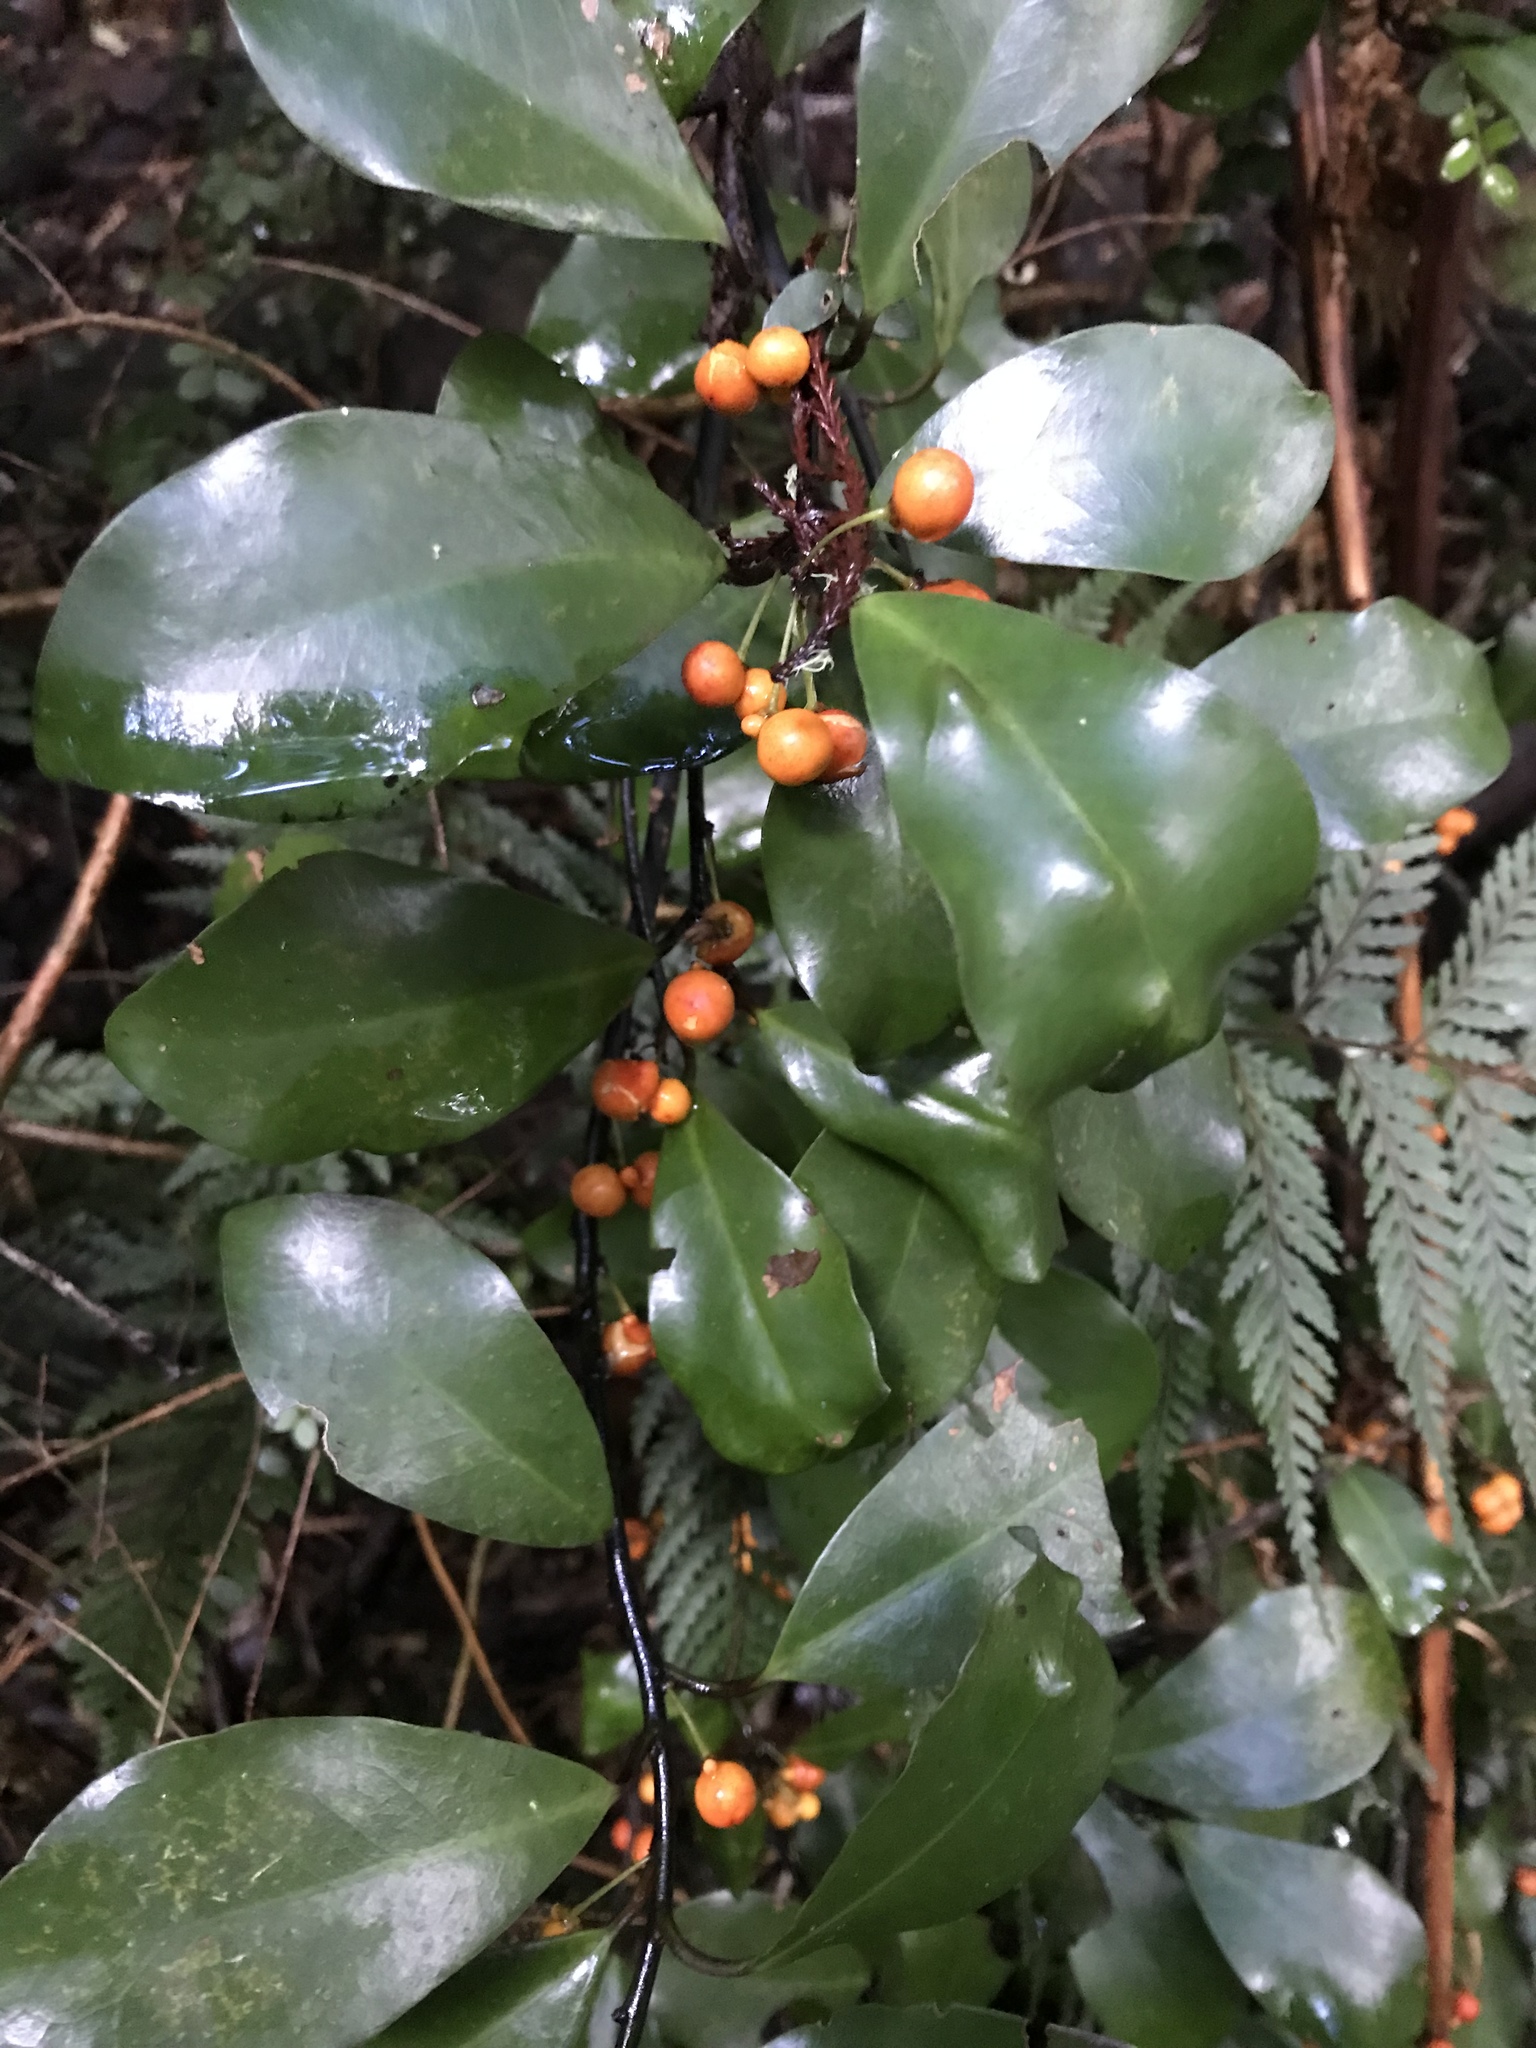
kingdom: Plantae
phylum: Tracheophyta
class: Magnoliopsida
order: Canellales
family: Winteraceae
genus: Pseudowintera
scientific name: Pseudowintera axillaris
